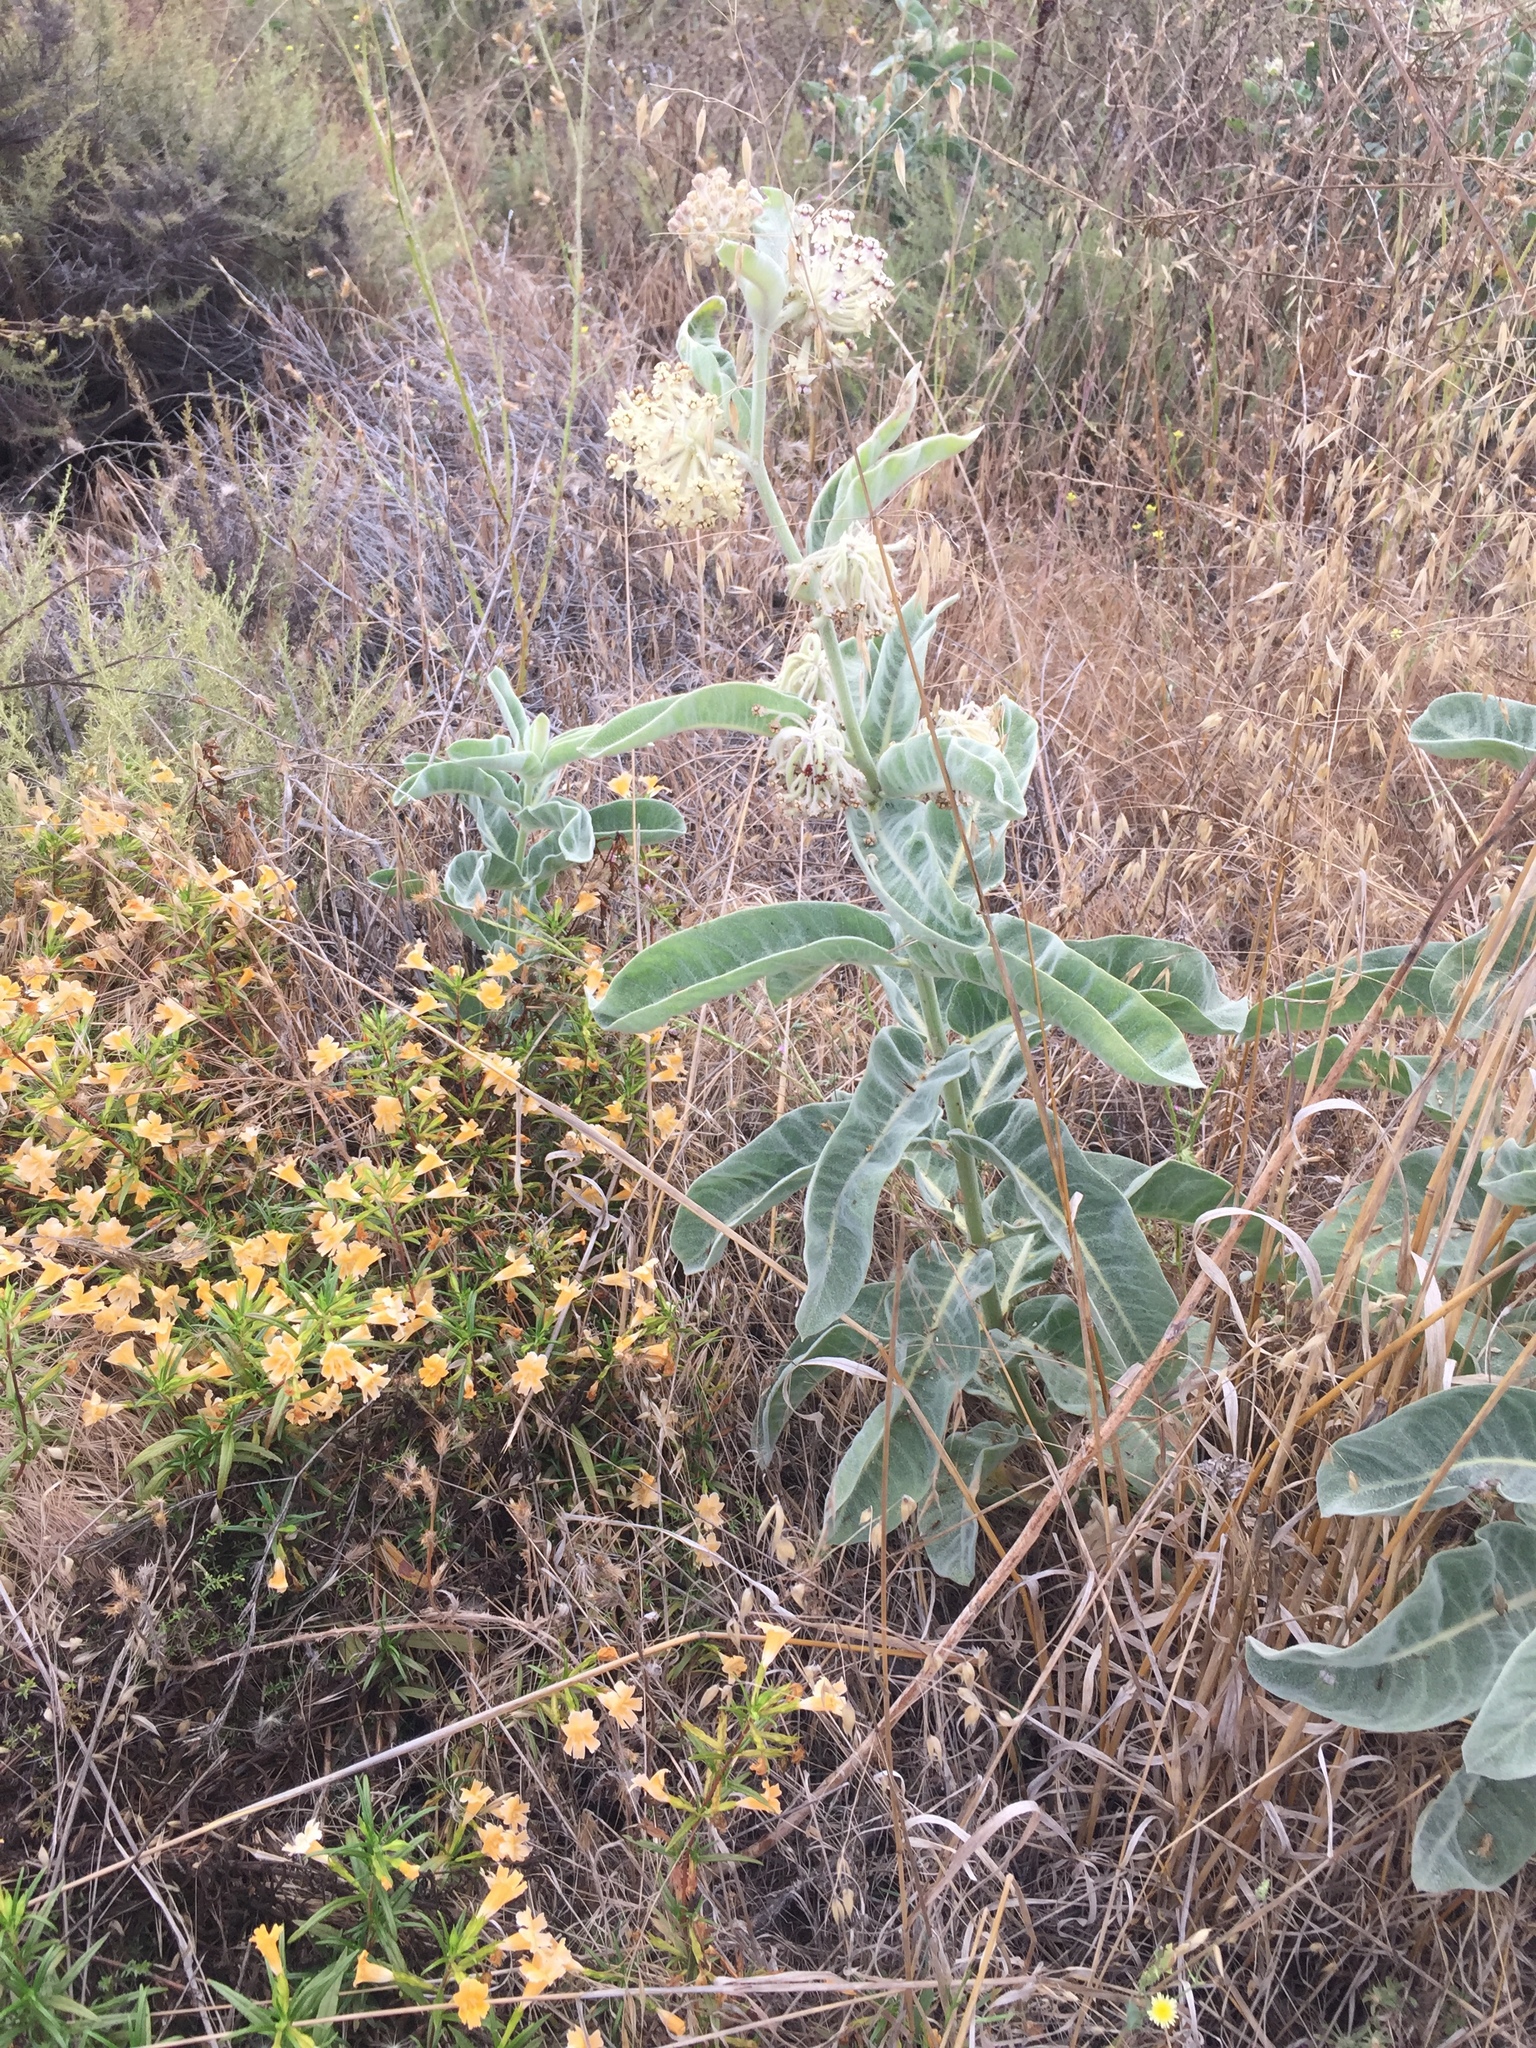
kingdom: Plantae
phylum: Tracheophyta
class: Magnoliopsida
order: Gentianales
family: Apocynaceae
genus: Asclepias
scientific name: Asclepias eriocarpa
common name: Indian milkweed
